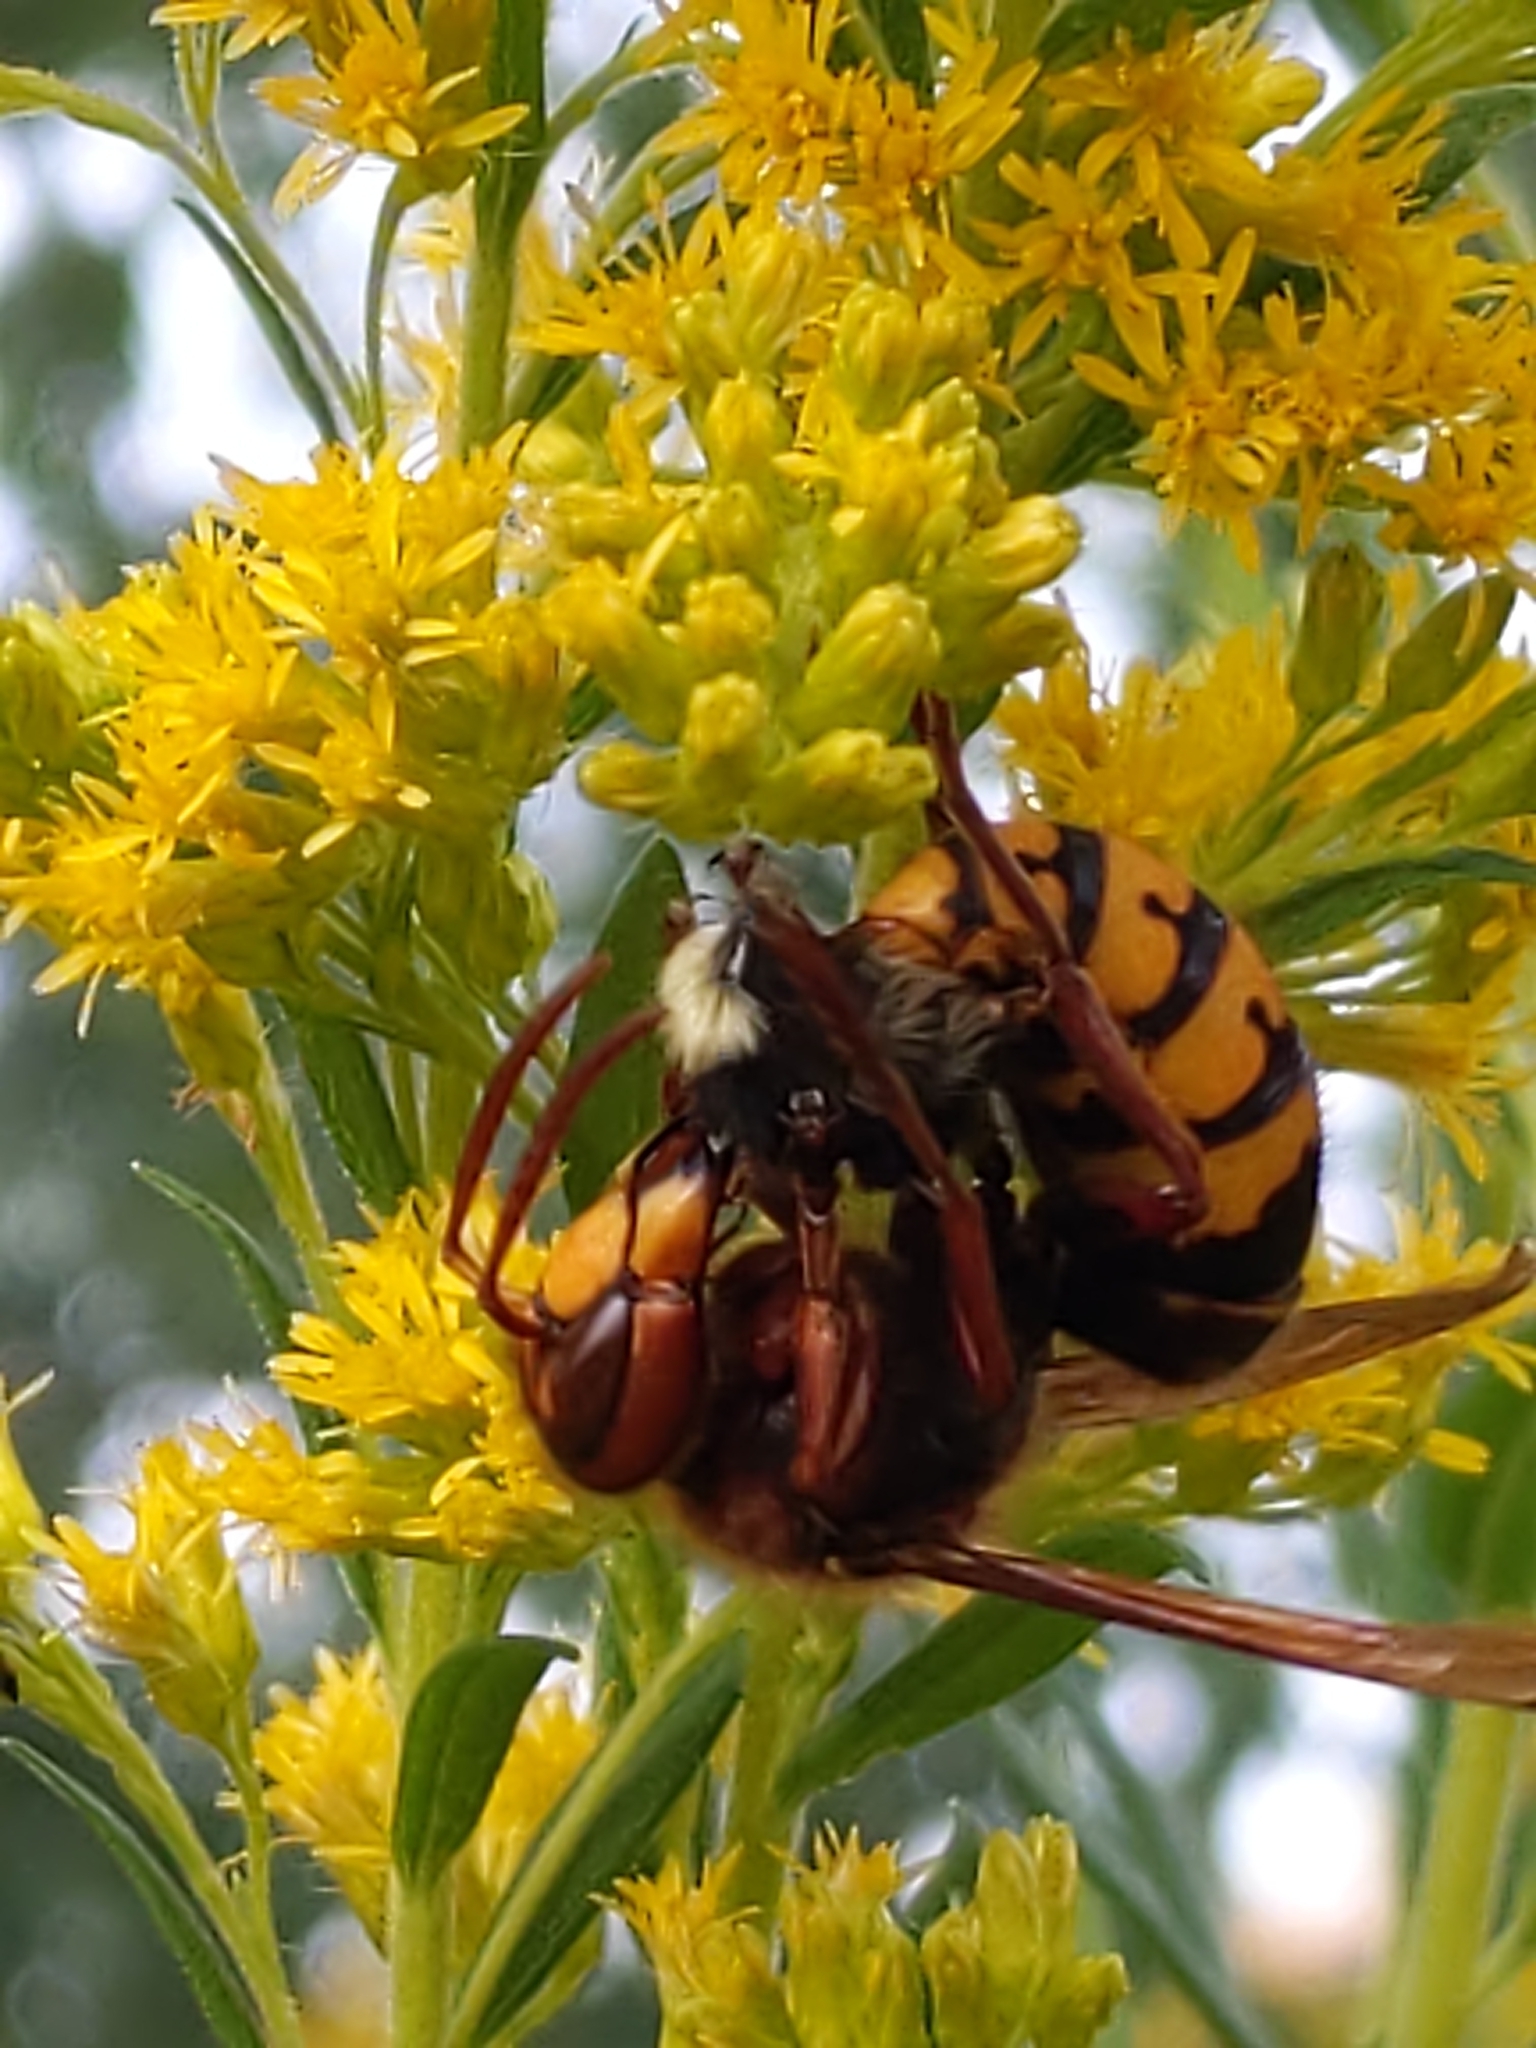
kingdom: Animalia
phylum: Arthropoda
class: Insecta
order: Hymenoptera
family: Vespidae
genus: Vespa
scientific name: Vespa crabro
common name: Hornet
